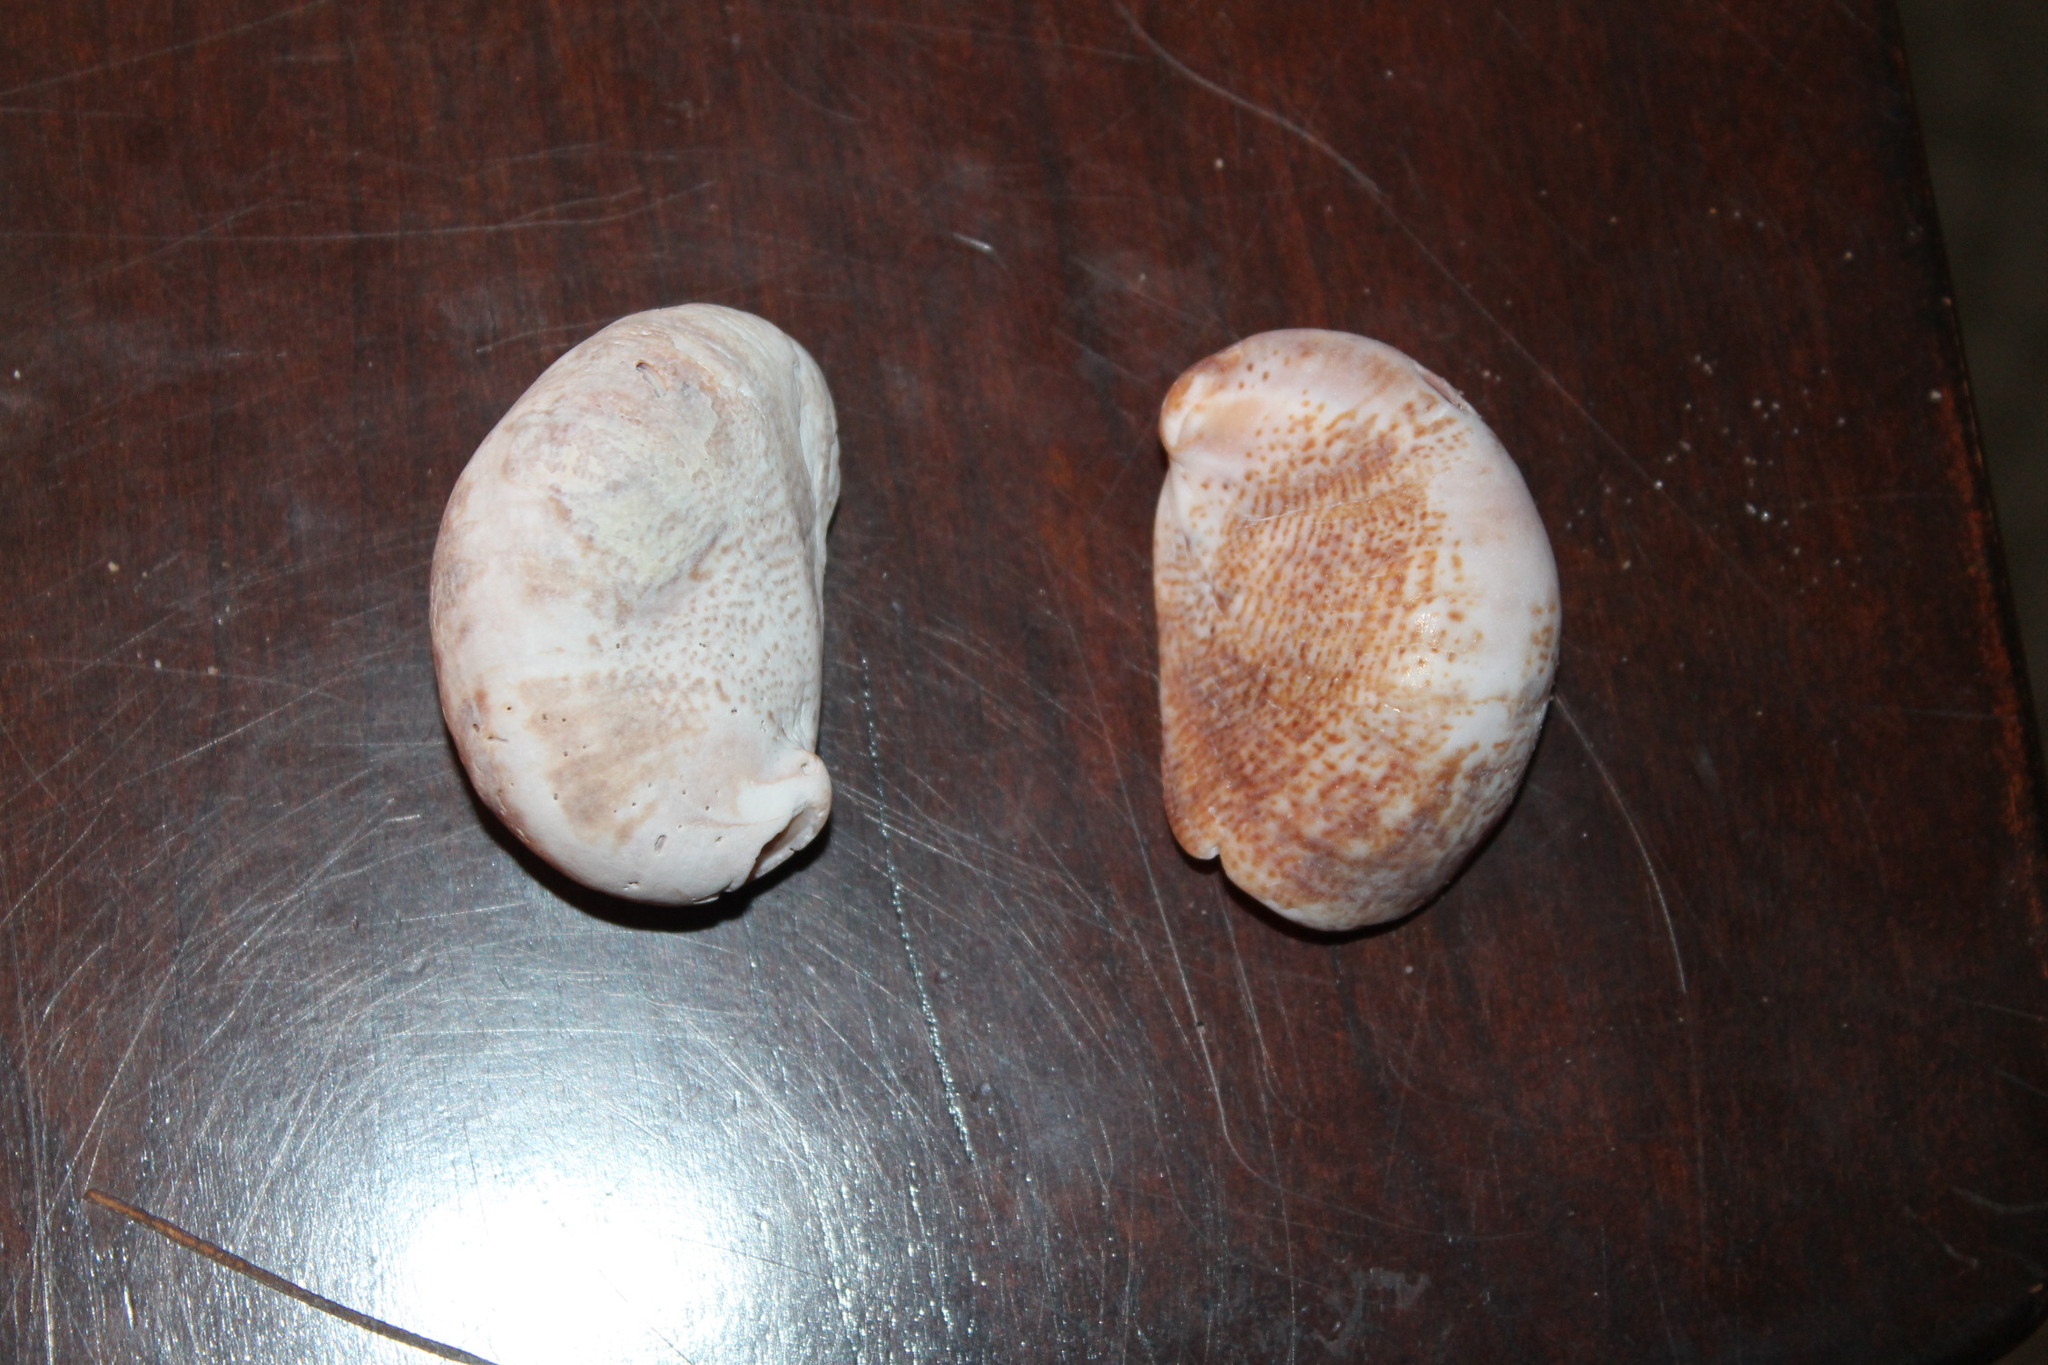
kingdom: Animalia
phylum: Mollusca
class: Gastropoda
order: Littorinimorpha
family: Calyptraeidae
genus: Crepidula
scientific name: Crepidula fornicata
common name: Slipper limpet
